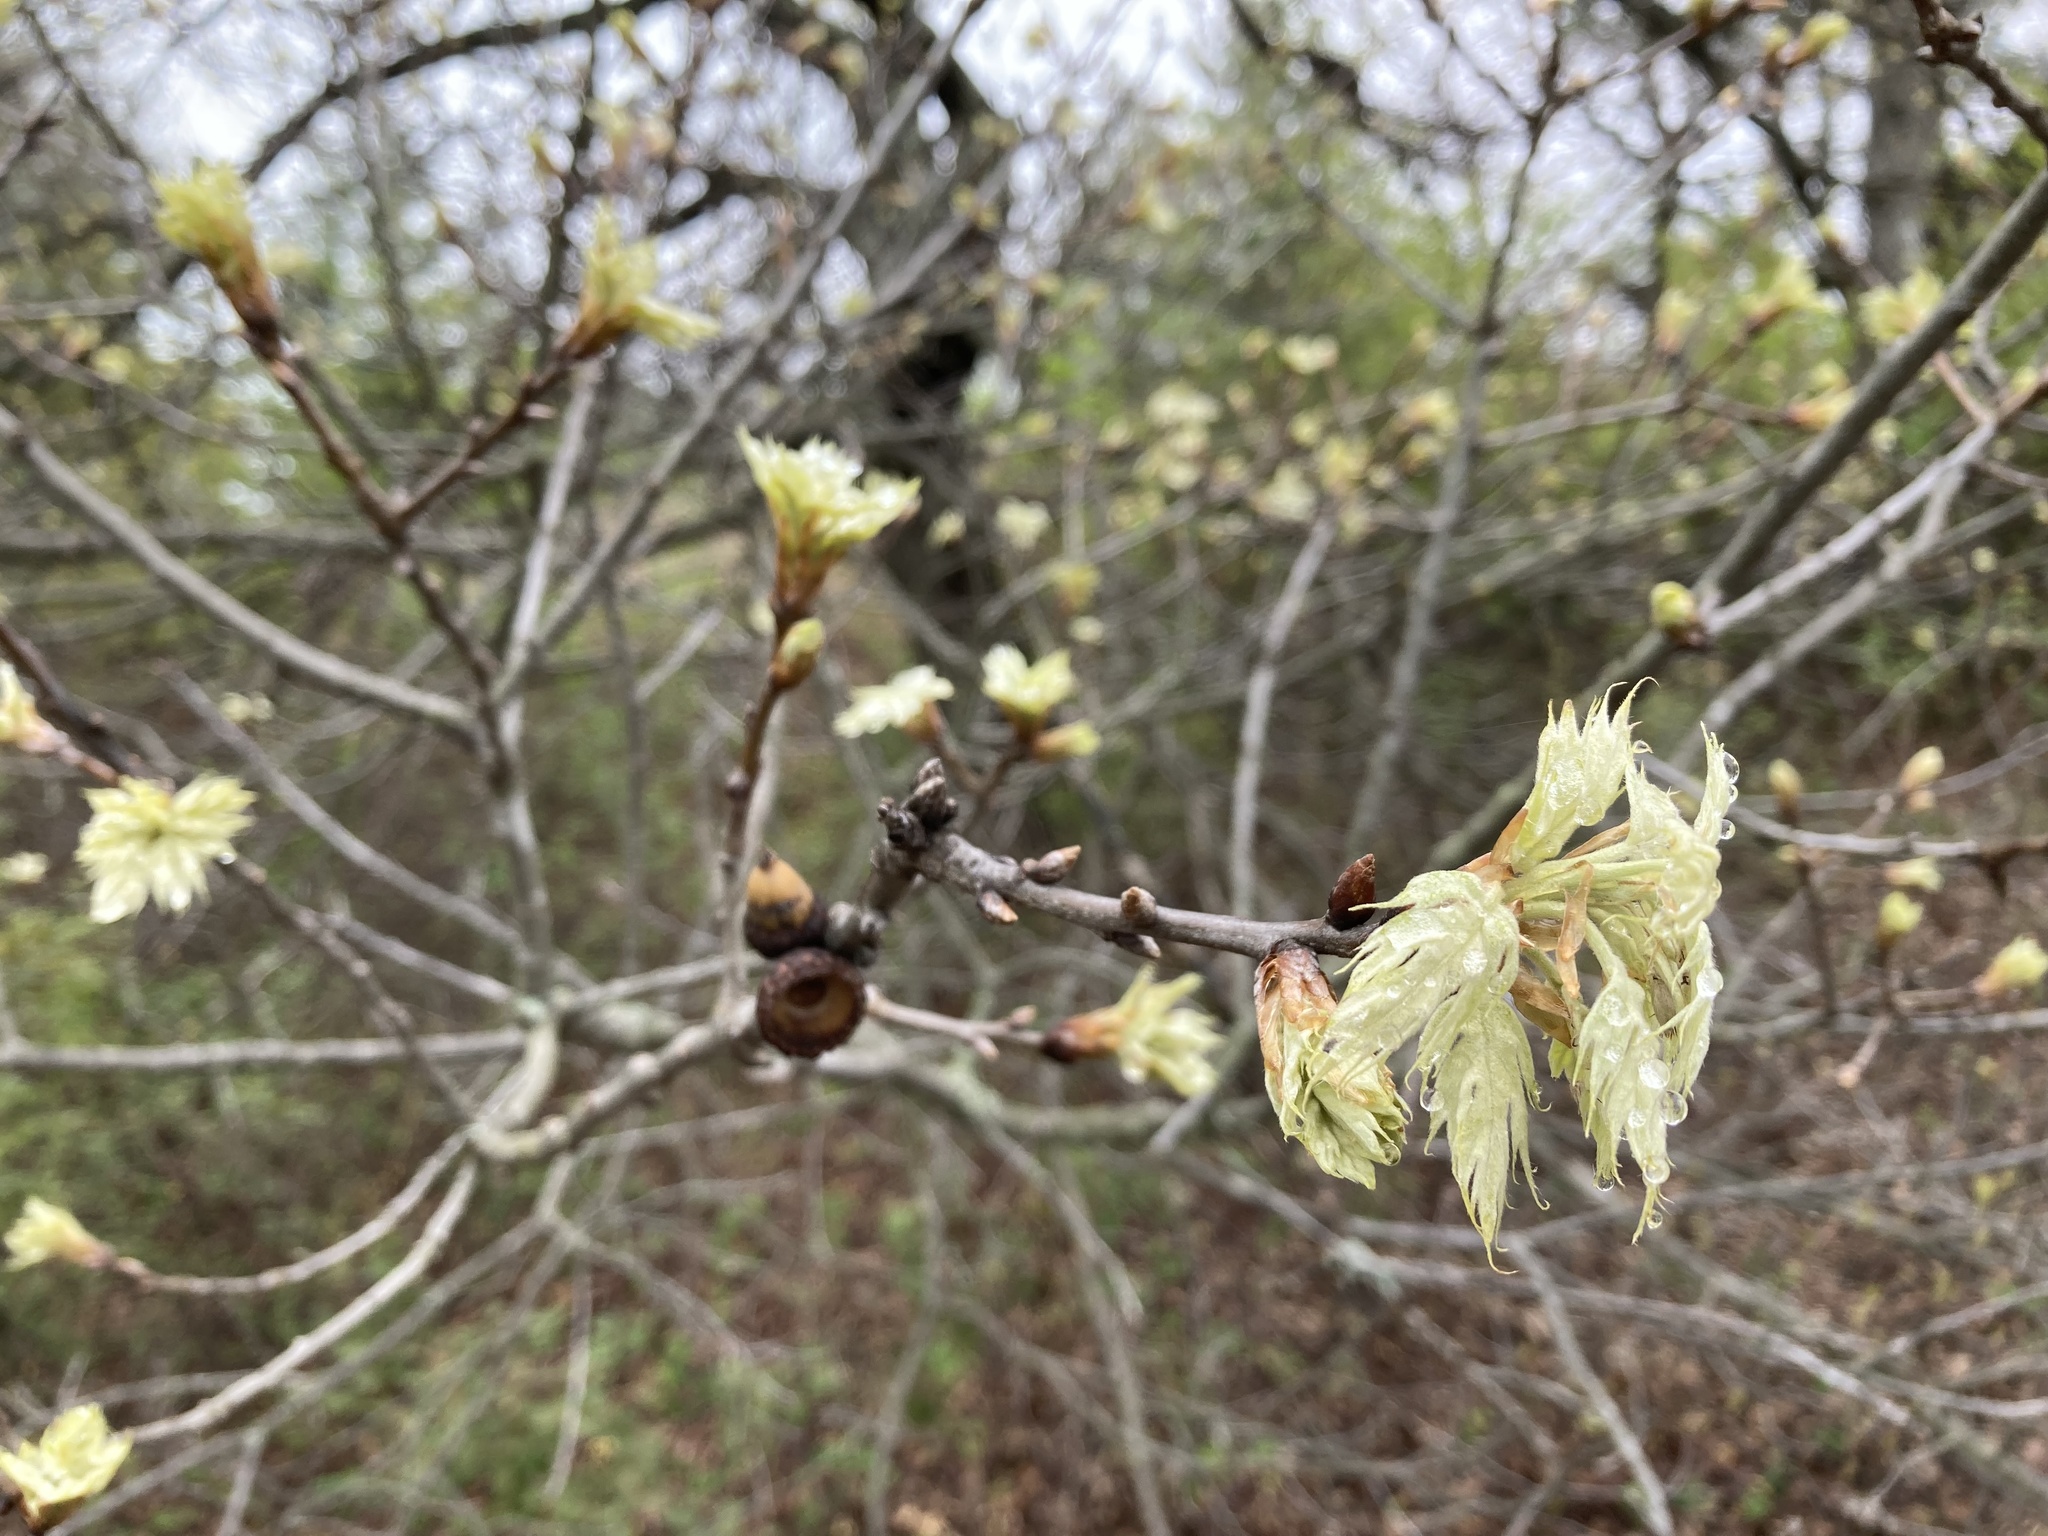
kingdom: Plantae
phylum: Tracheophyta
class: Magnoliopsida
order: Fagales
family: Fagaceae
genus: Quercus
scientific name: Quercus rubra
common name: Red oak
